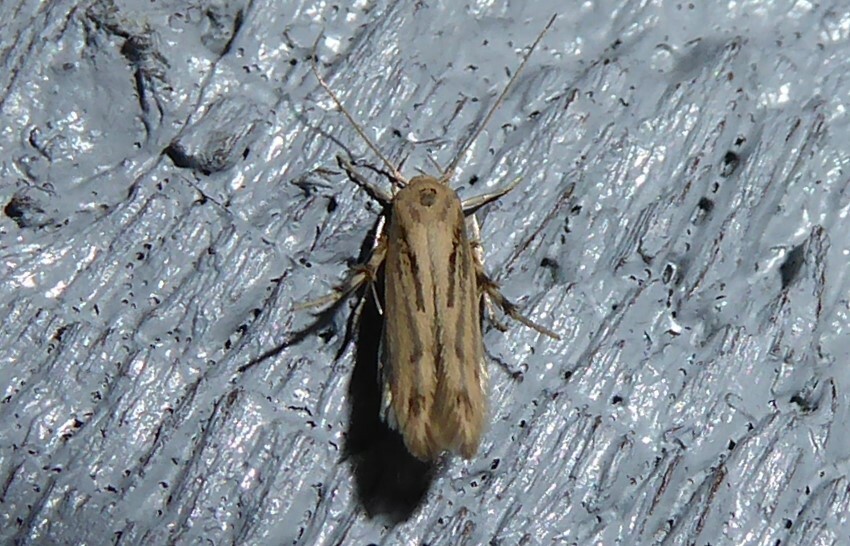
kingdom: Animalia
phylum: Arthropoda
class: Insecta
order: Lepidoptera
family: Stathmopodidae
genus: Stathmopoda
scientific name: Stathmopoda plumbiflua
